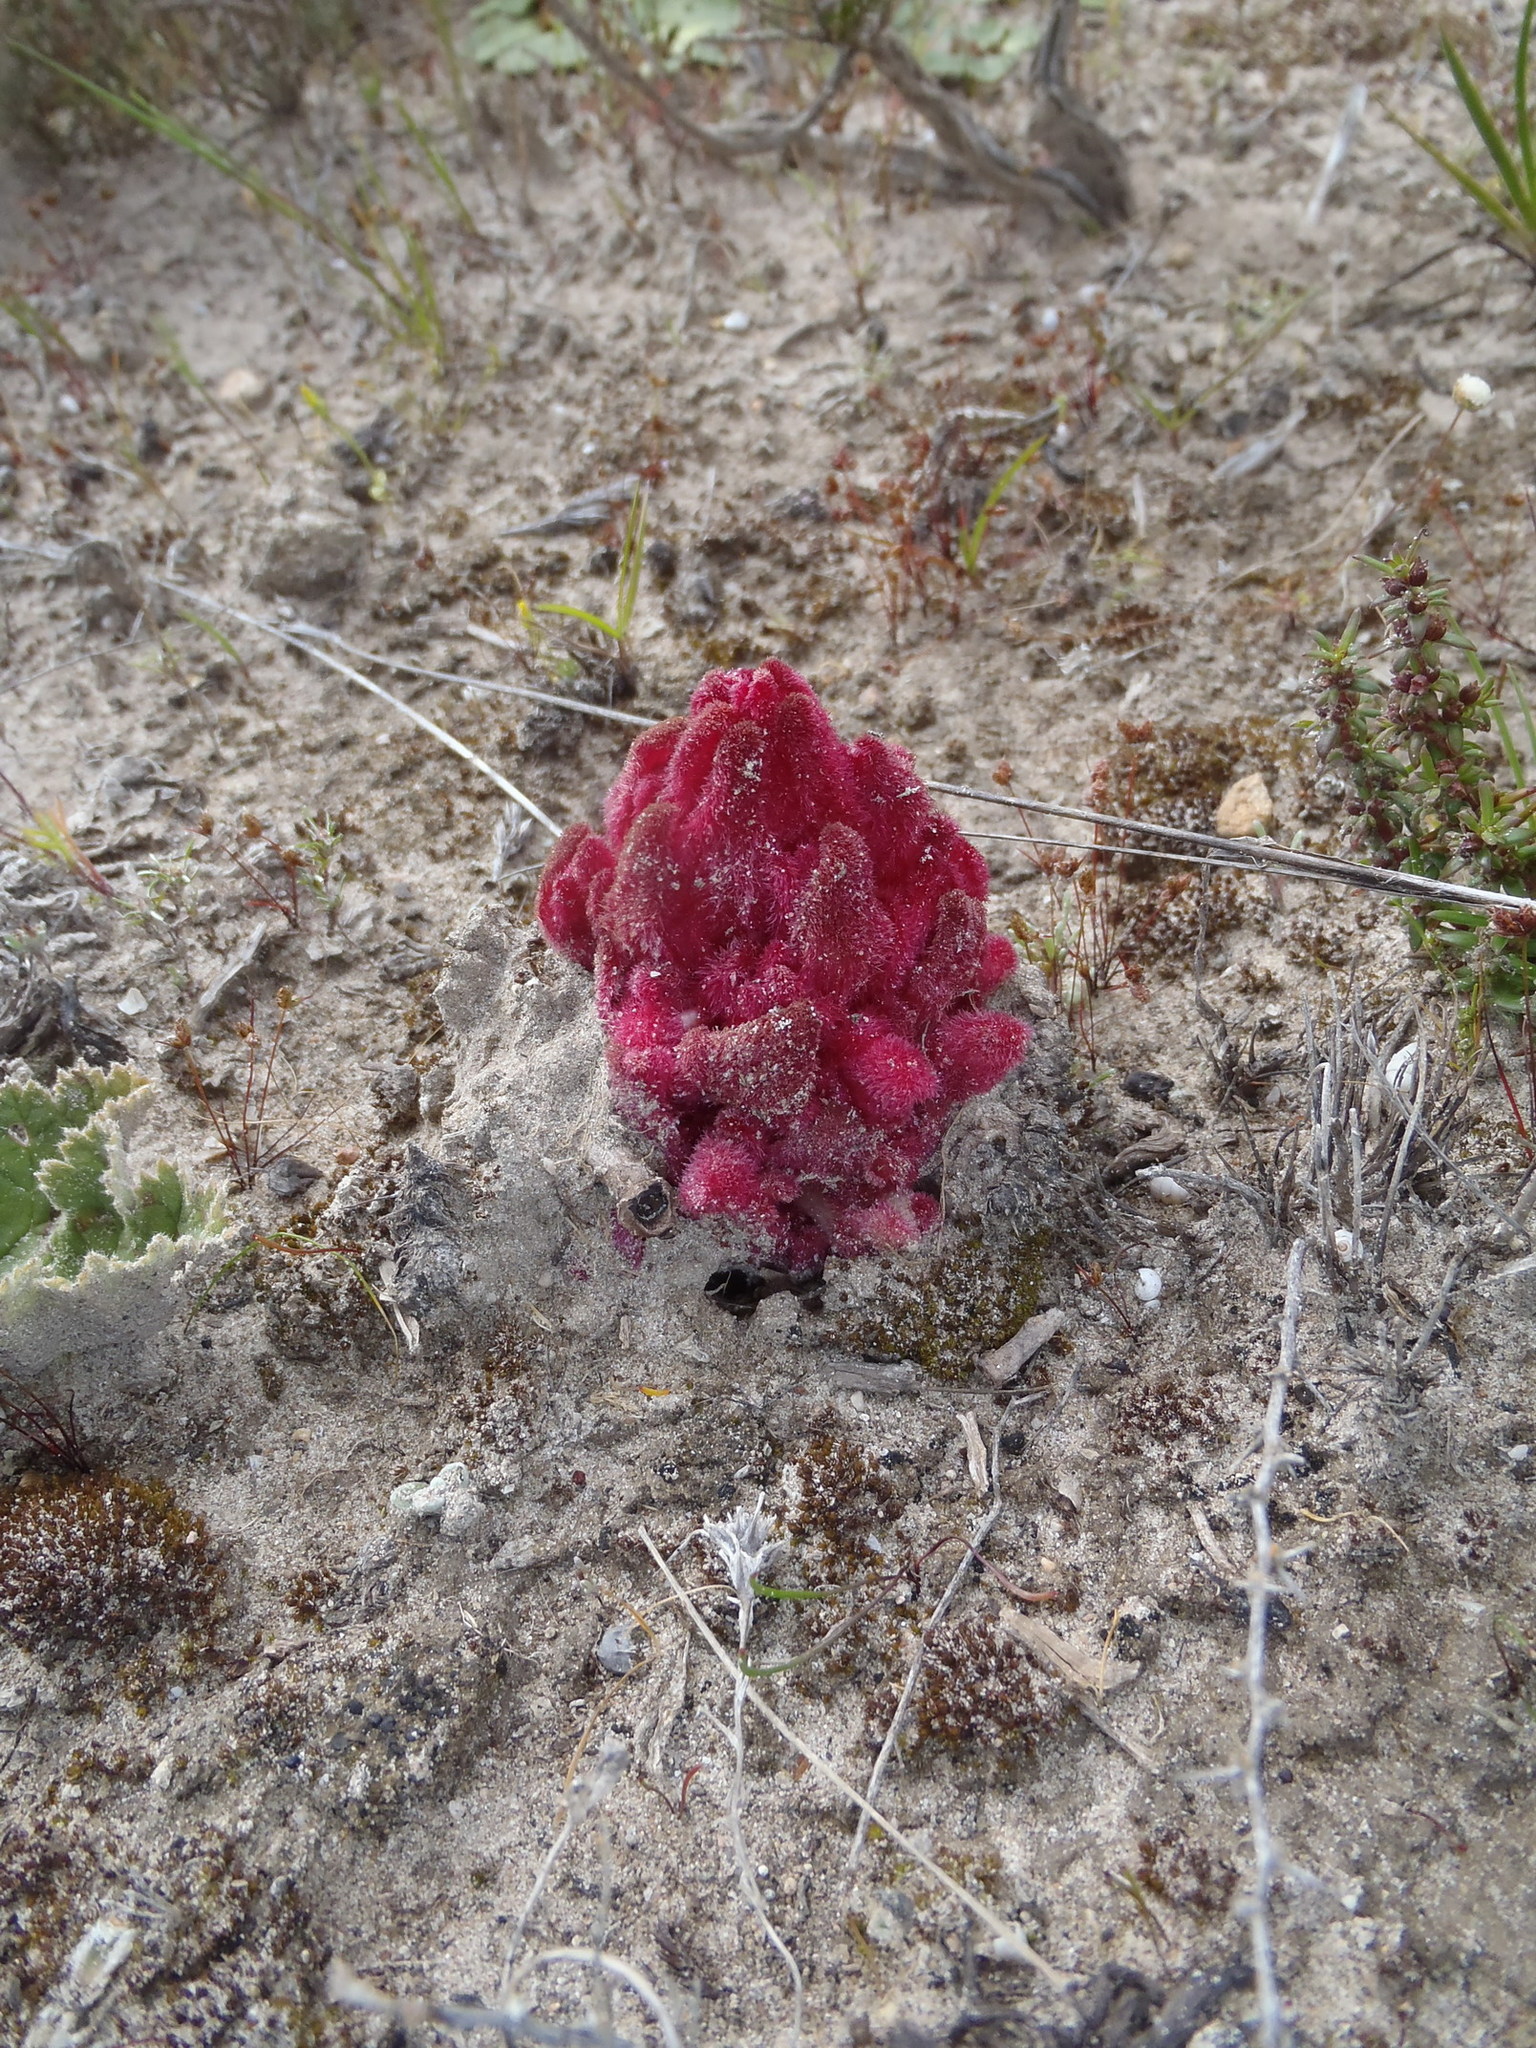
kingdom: Plantae
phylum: Tracheophyta
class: Magnoliopsida
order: Lamiales
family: Orobanchaceae
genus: Hyobanche
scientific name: Hyobanche sanguinea
